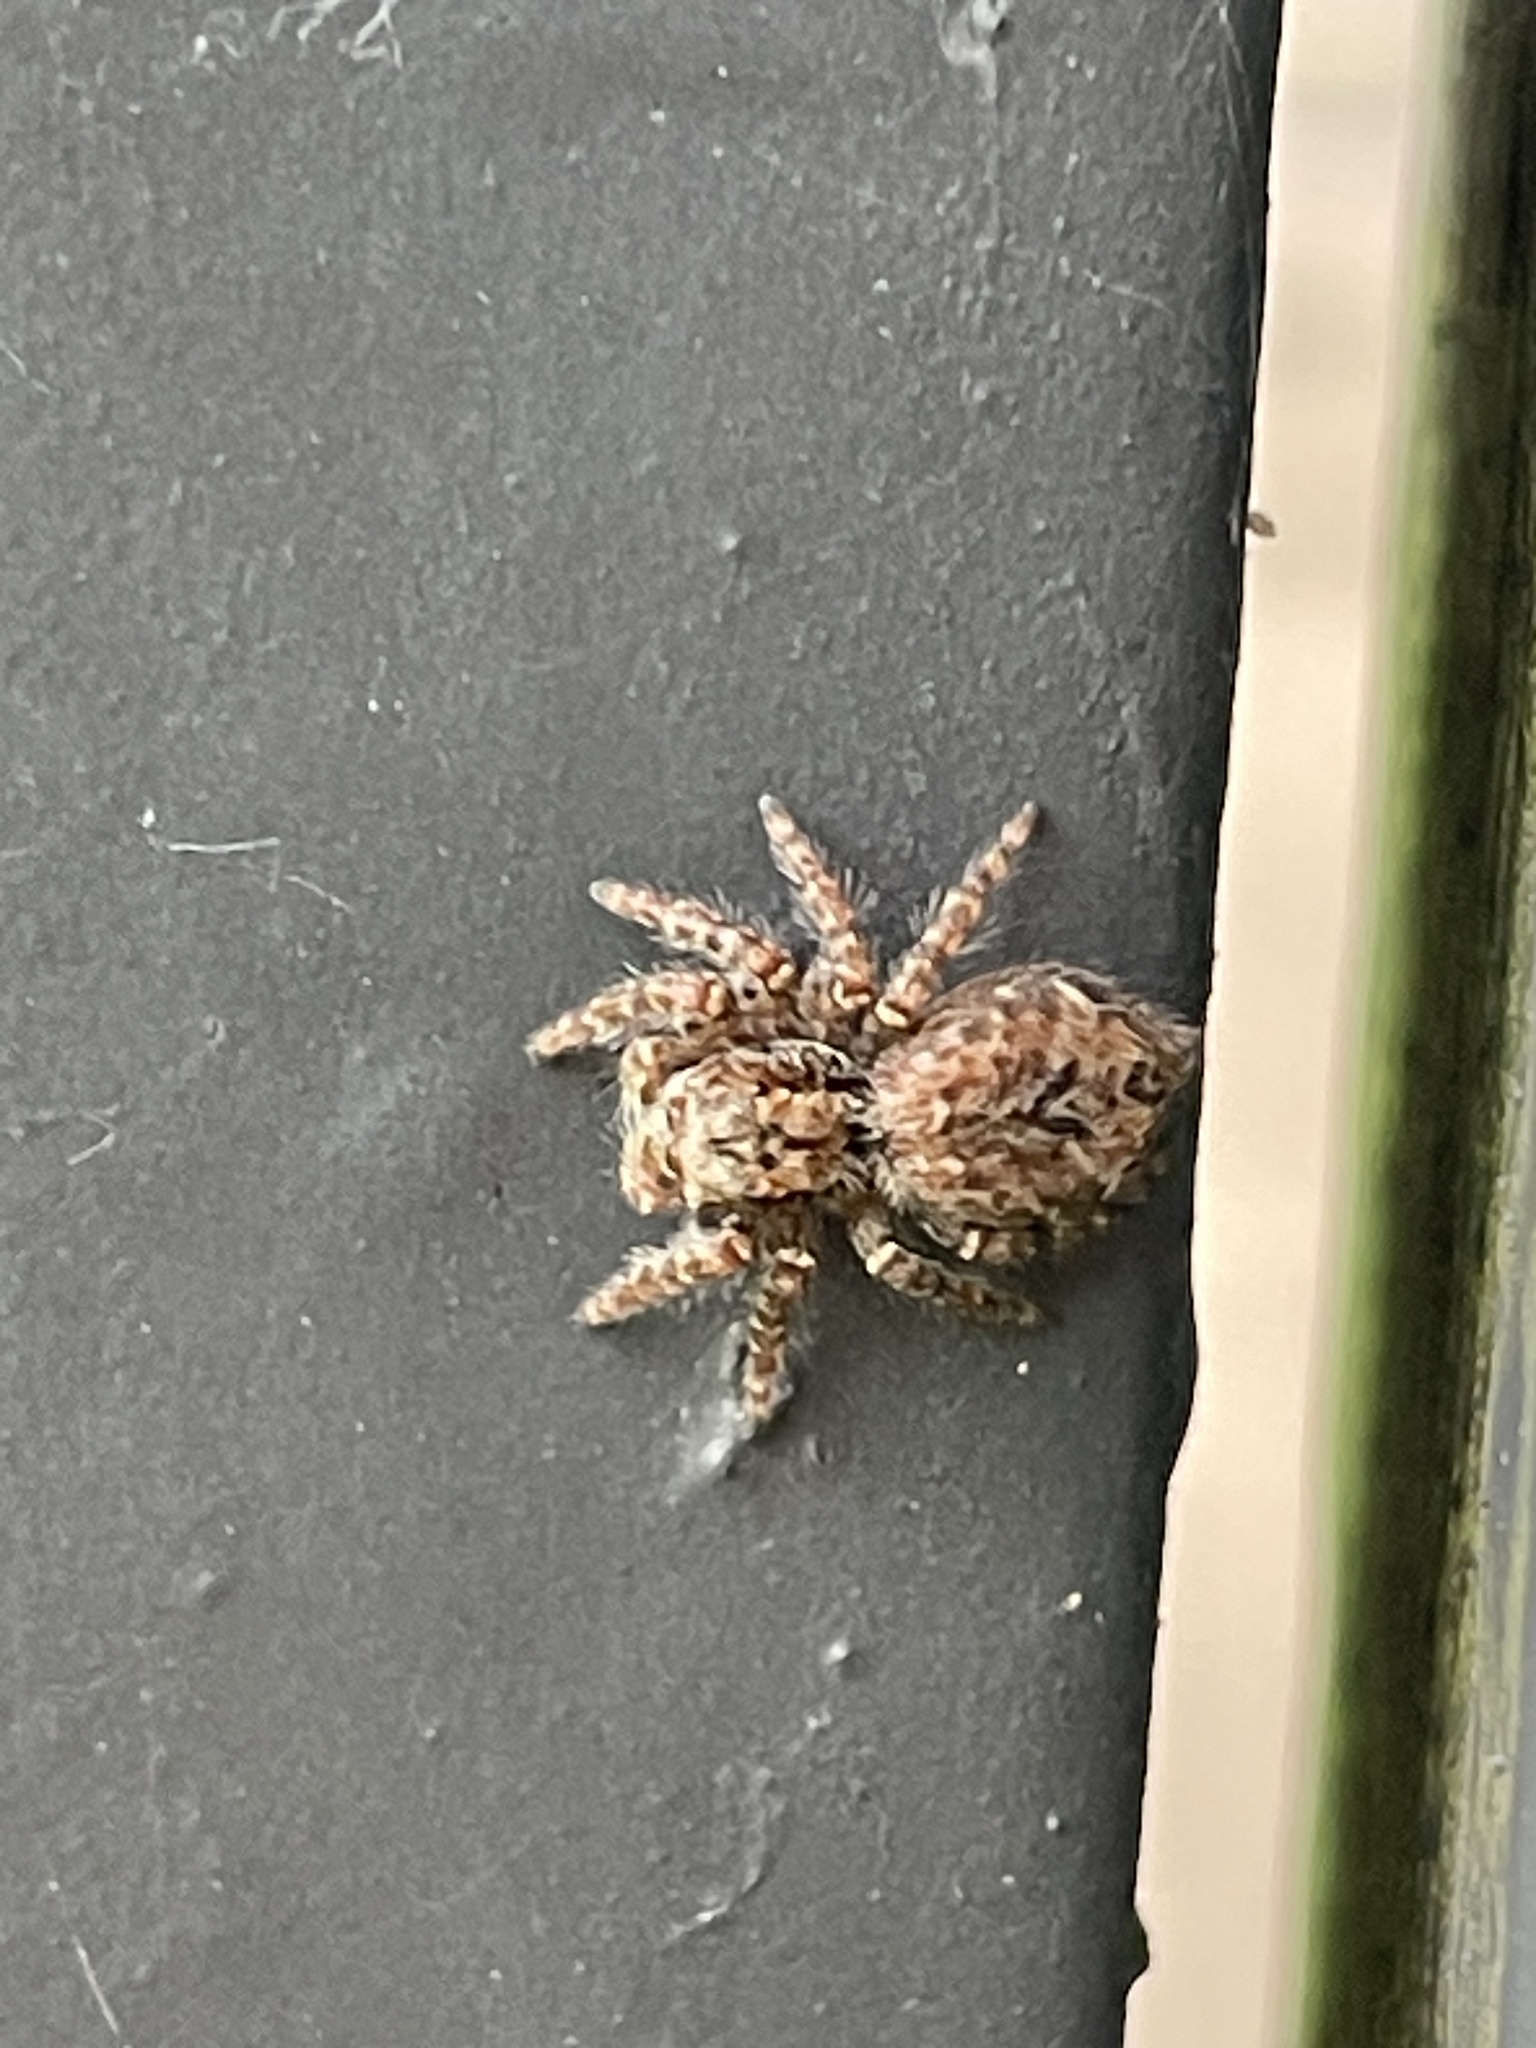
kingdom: Animalia
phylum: Arthropoda
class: Arachnida
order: Araneae
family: Salticidae
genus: Servaea
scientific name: Servaea incana
